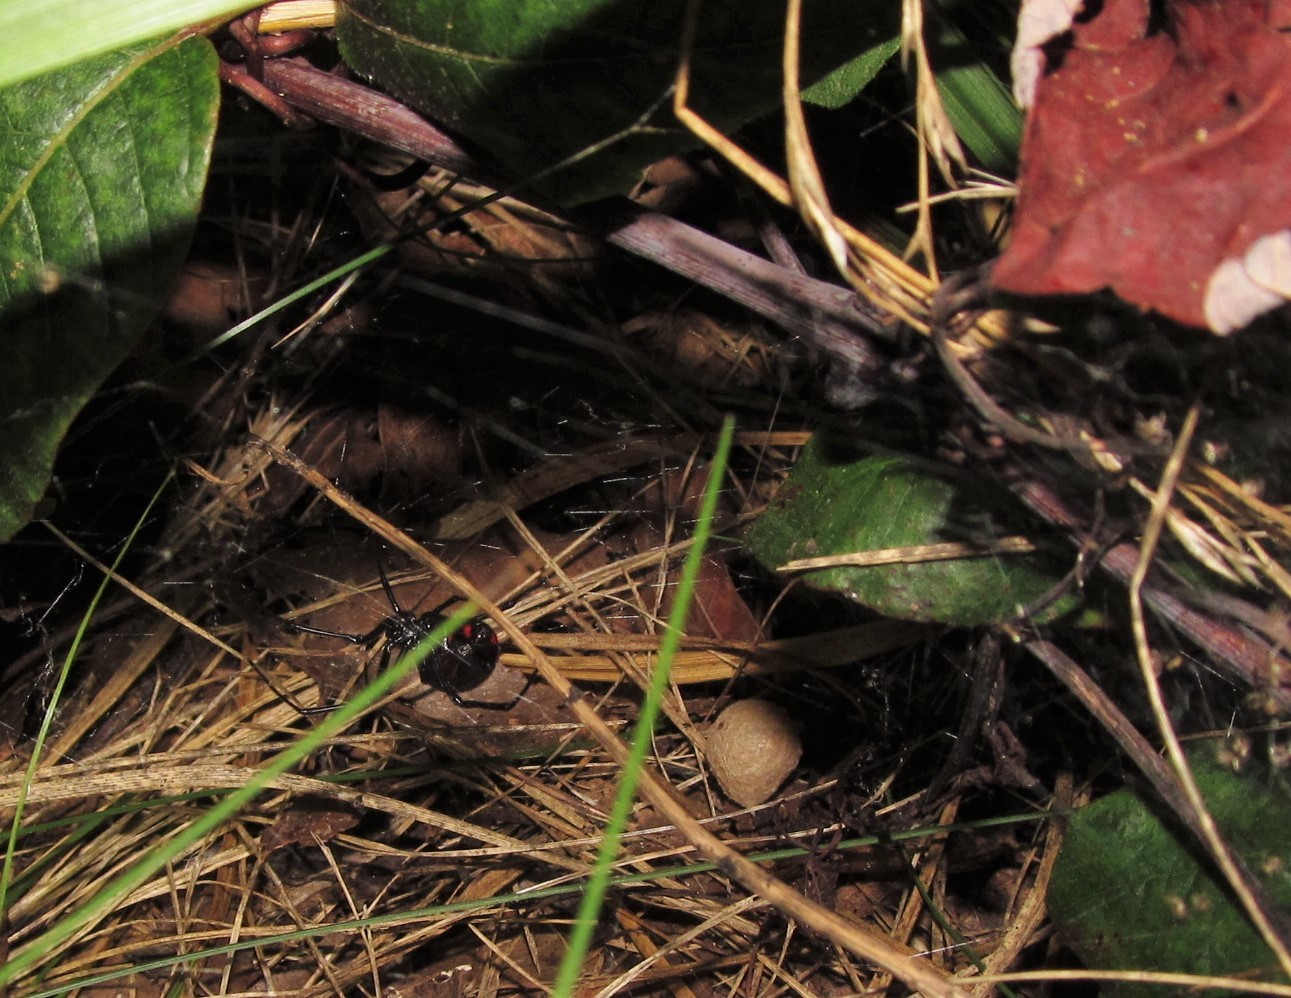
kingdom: Animalia
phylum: Arthropoda
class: Arachnida
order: Araneae
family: Theridiidae
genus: Latrodectus
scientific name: Latrodectus variolus
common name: Northern black widow
